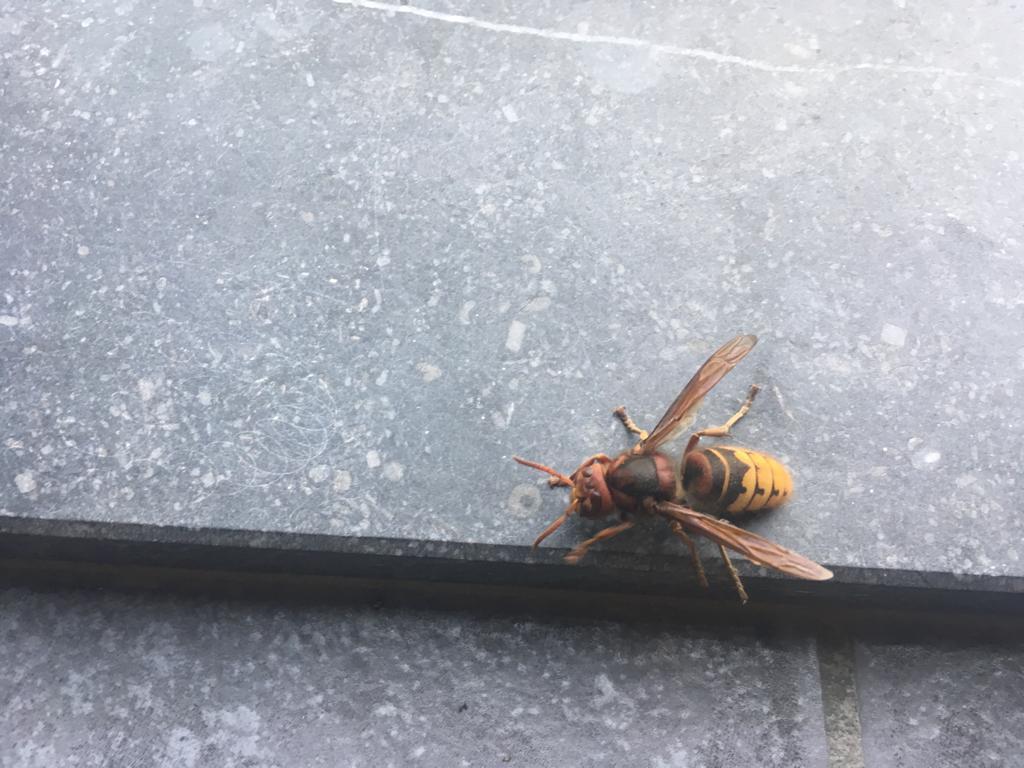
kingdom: Animalia
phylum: Arthropoda
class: Insecta
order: Hymenoptera
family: Vespidae
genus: Vespa
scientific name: Vespa crabro
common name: Hornet
